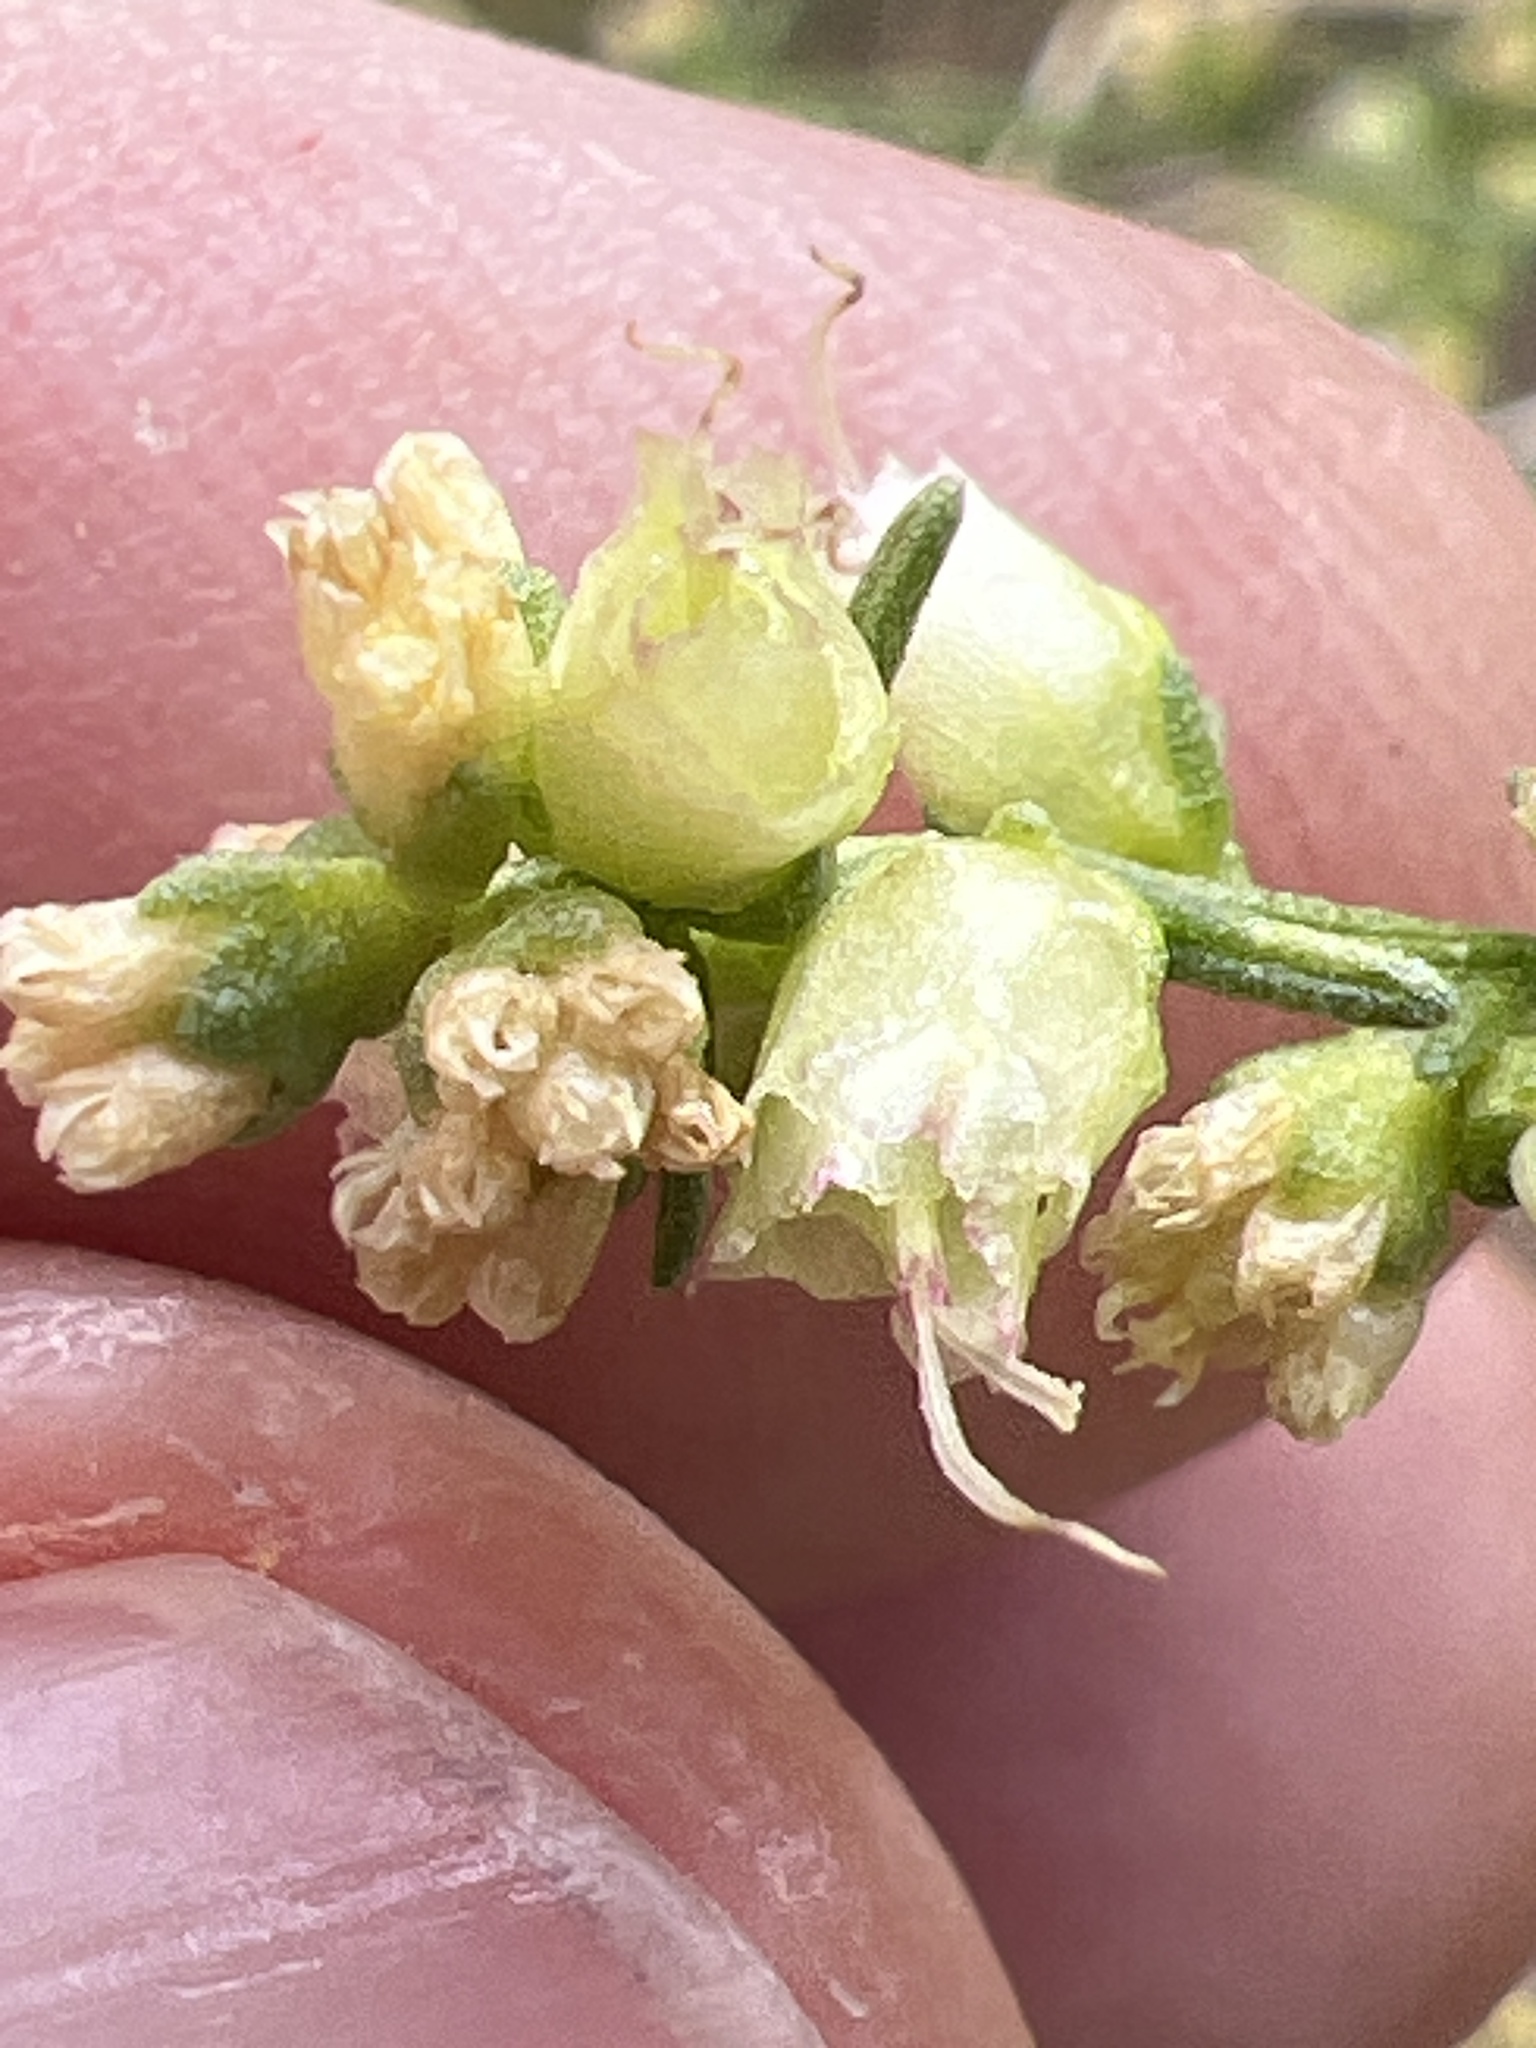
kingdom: Plantae
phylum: Tracheophyta
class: Magnoliopsida
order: Asterales
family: Asteraceae
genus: Ambrosia
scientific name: Ambrosia salsola
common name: Burrobrush
